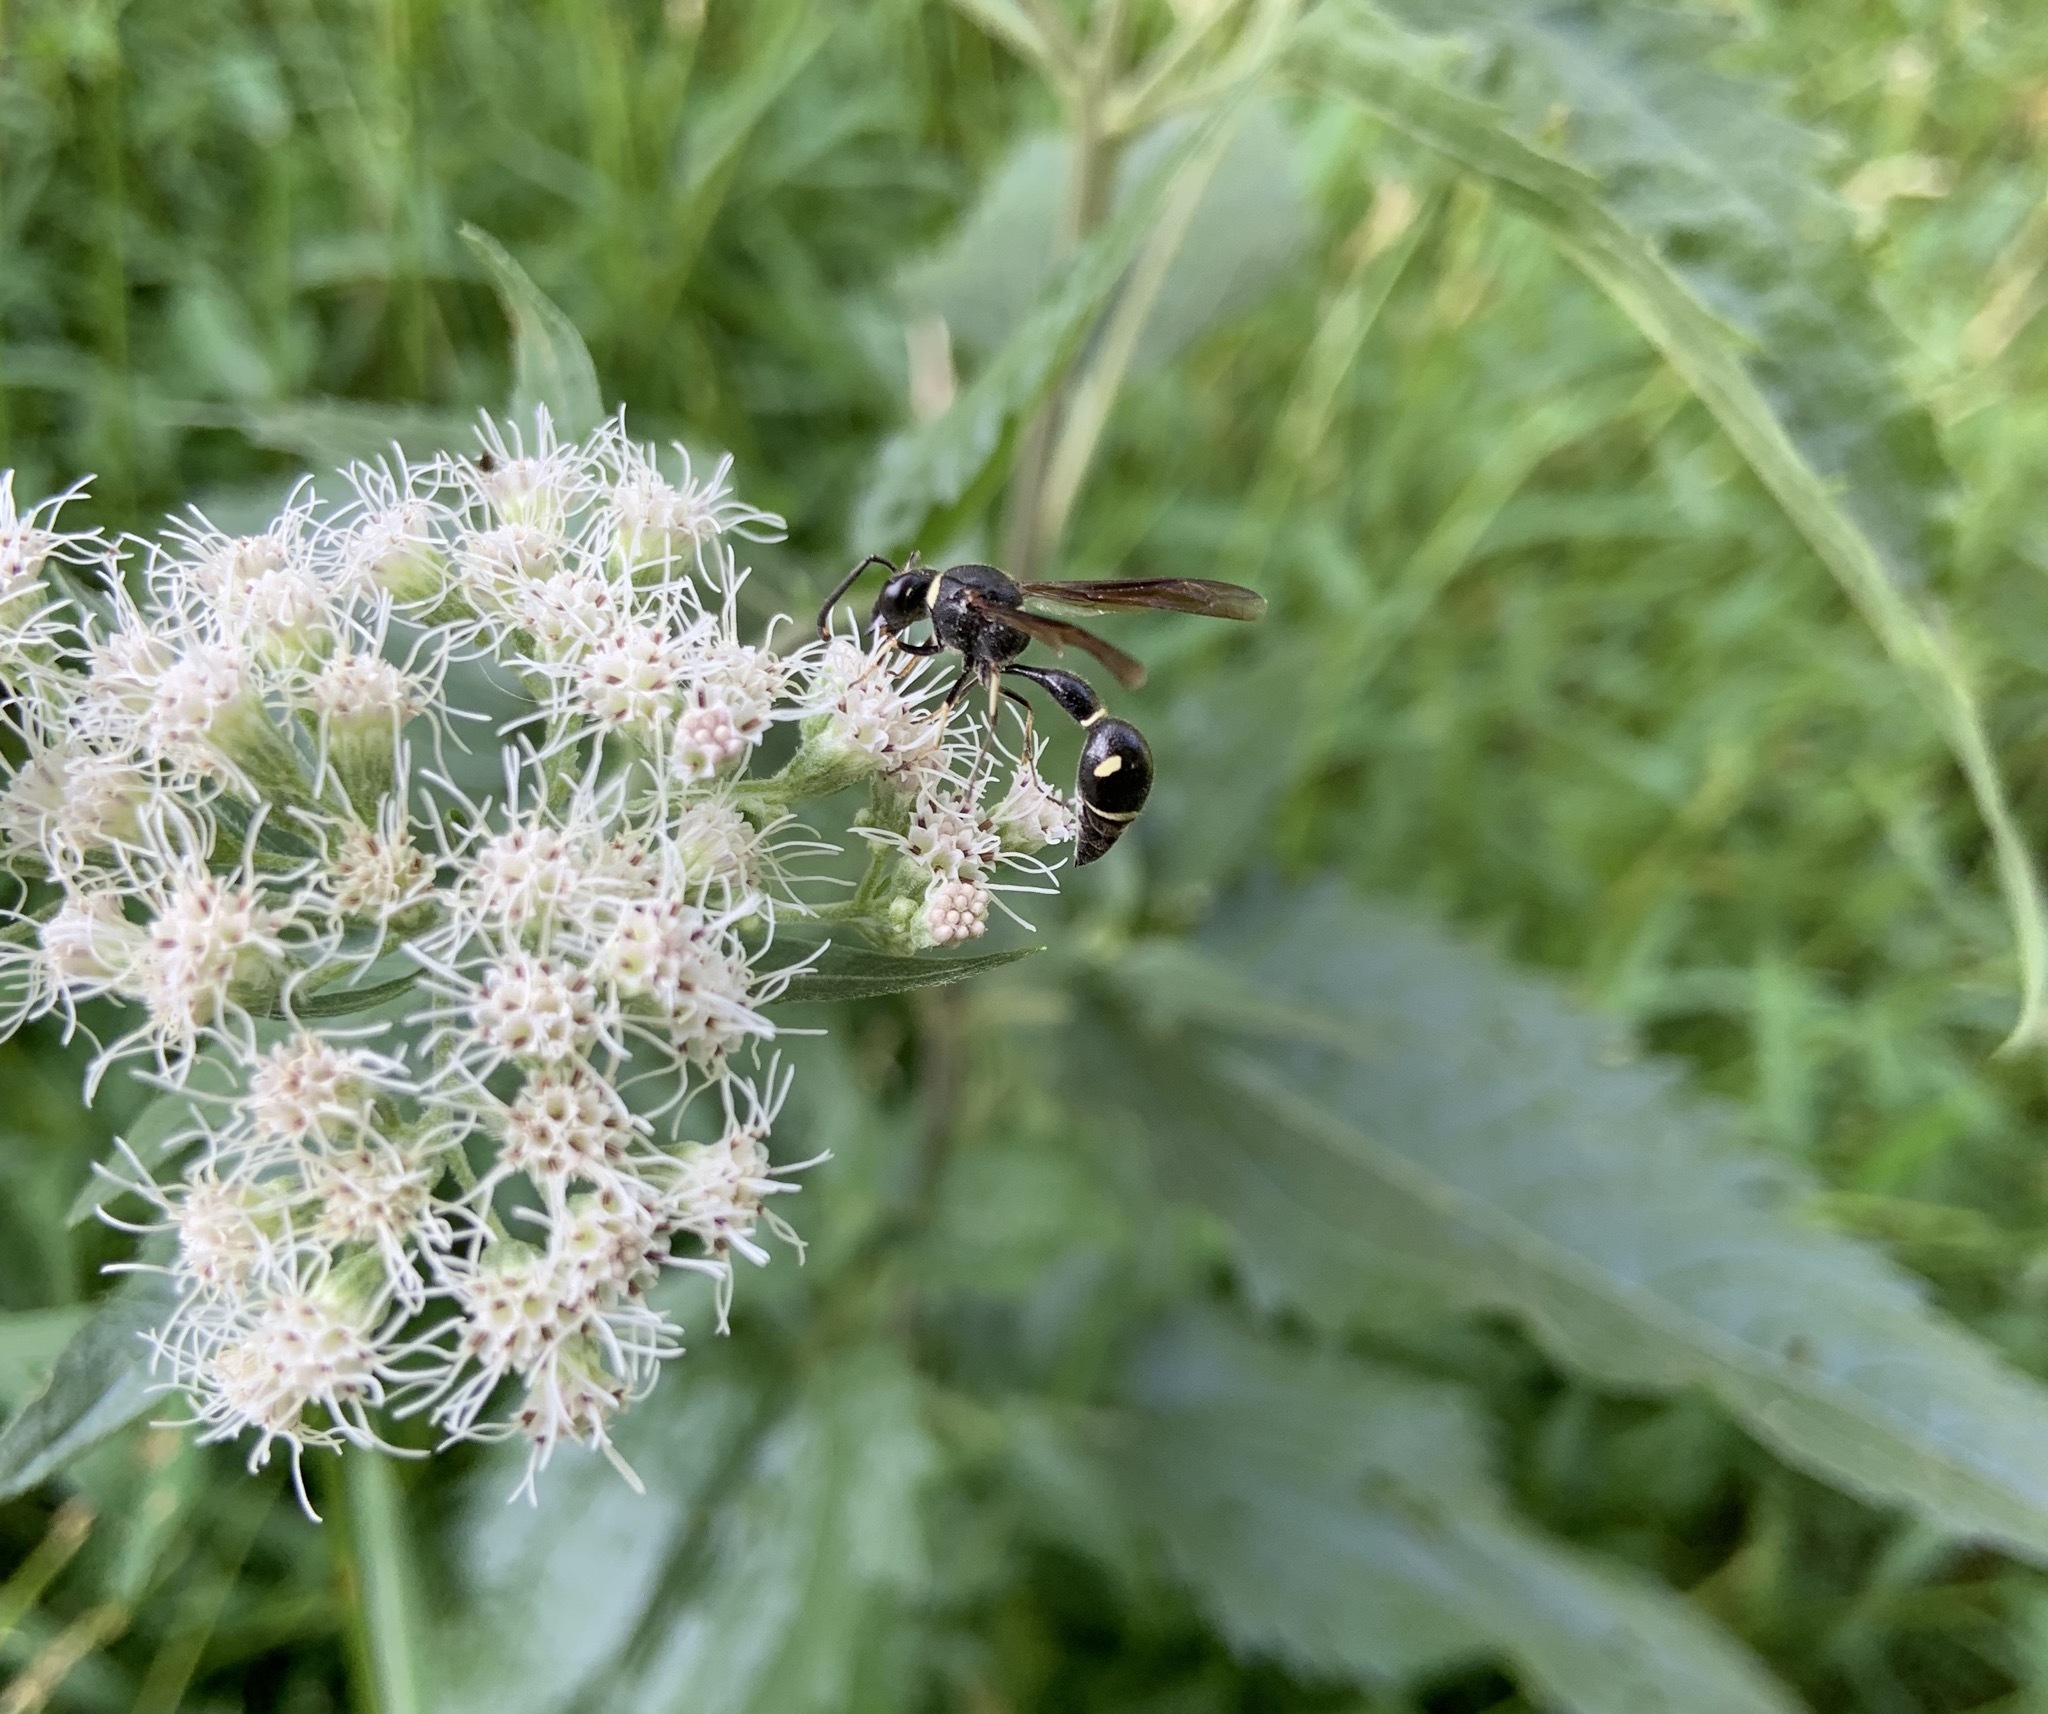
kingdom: Animalia
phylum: Arthropoda
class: Insecta
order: Hymenoptera
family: Vespidae
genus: Eumenes
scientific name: Eumenes fraternus
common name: Fraternal potter wasp
